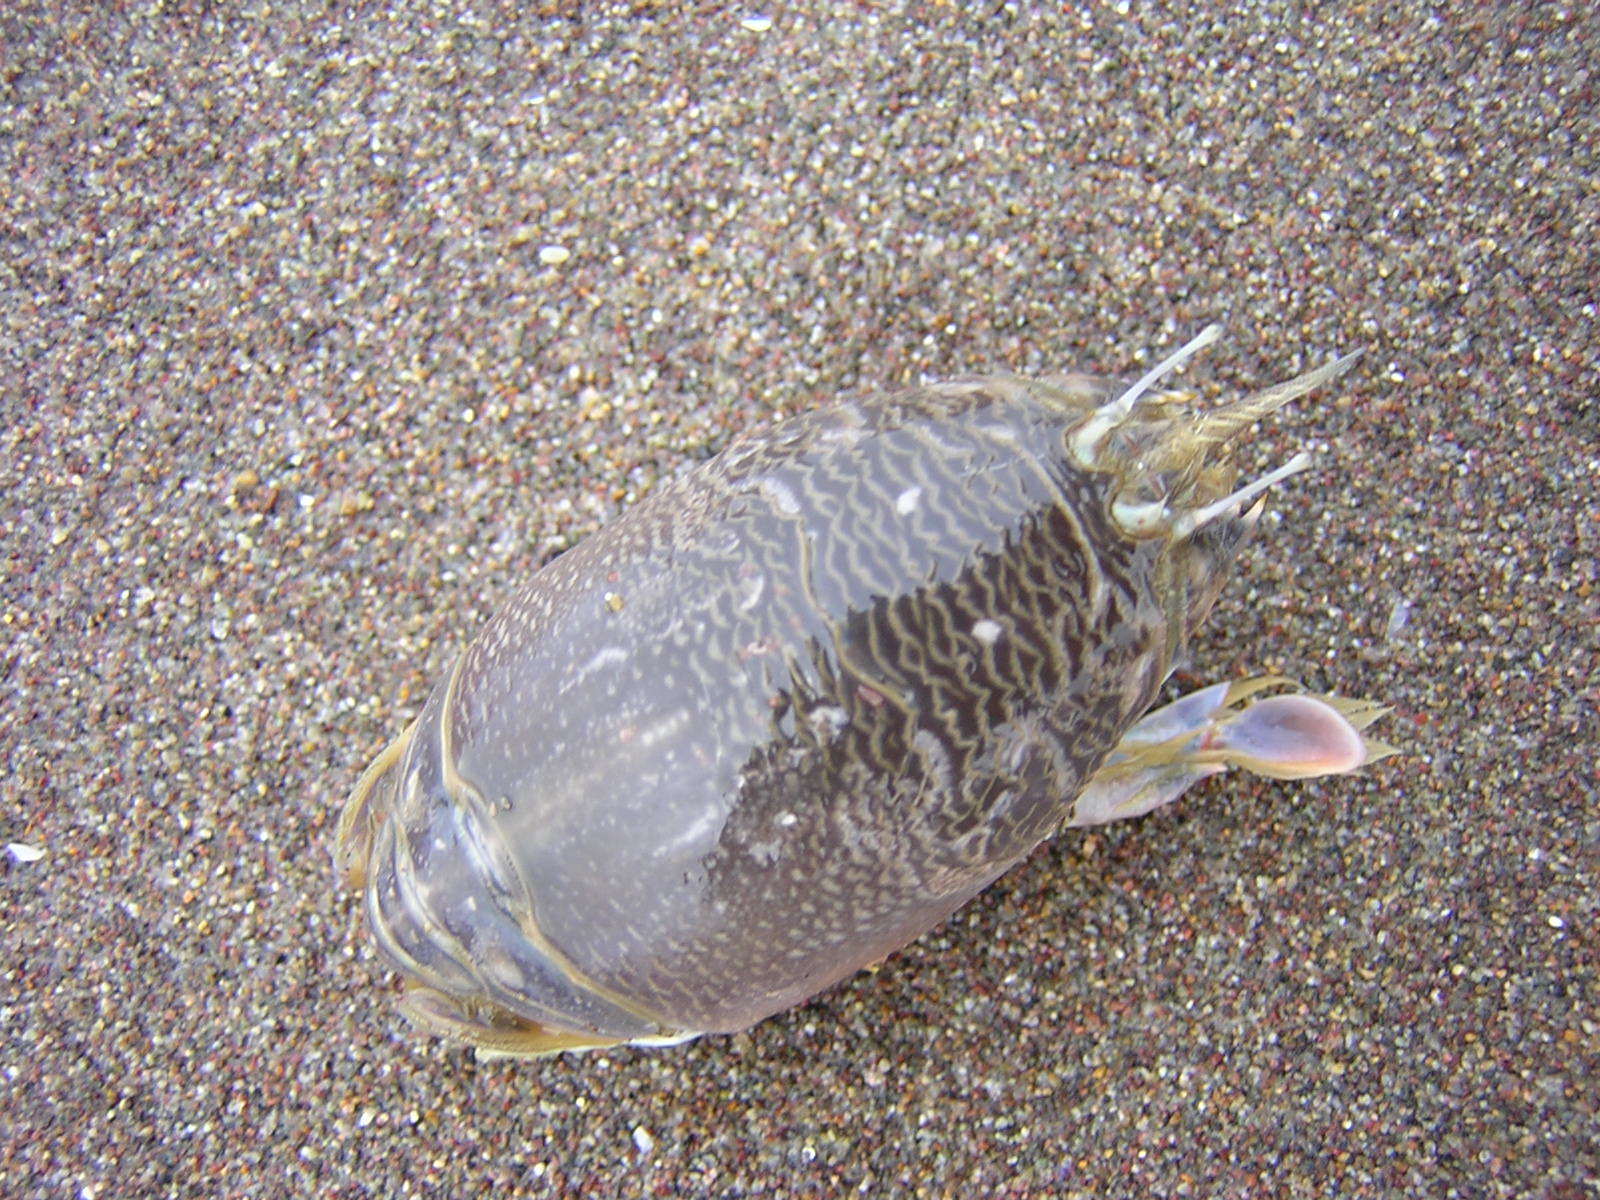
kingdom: Animalia
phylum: Arthropoda
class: Malacostraca
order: Decapoda
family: Hippidae
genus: Emerita
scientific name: Emerita analoga
